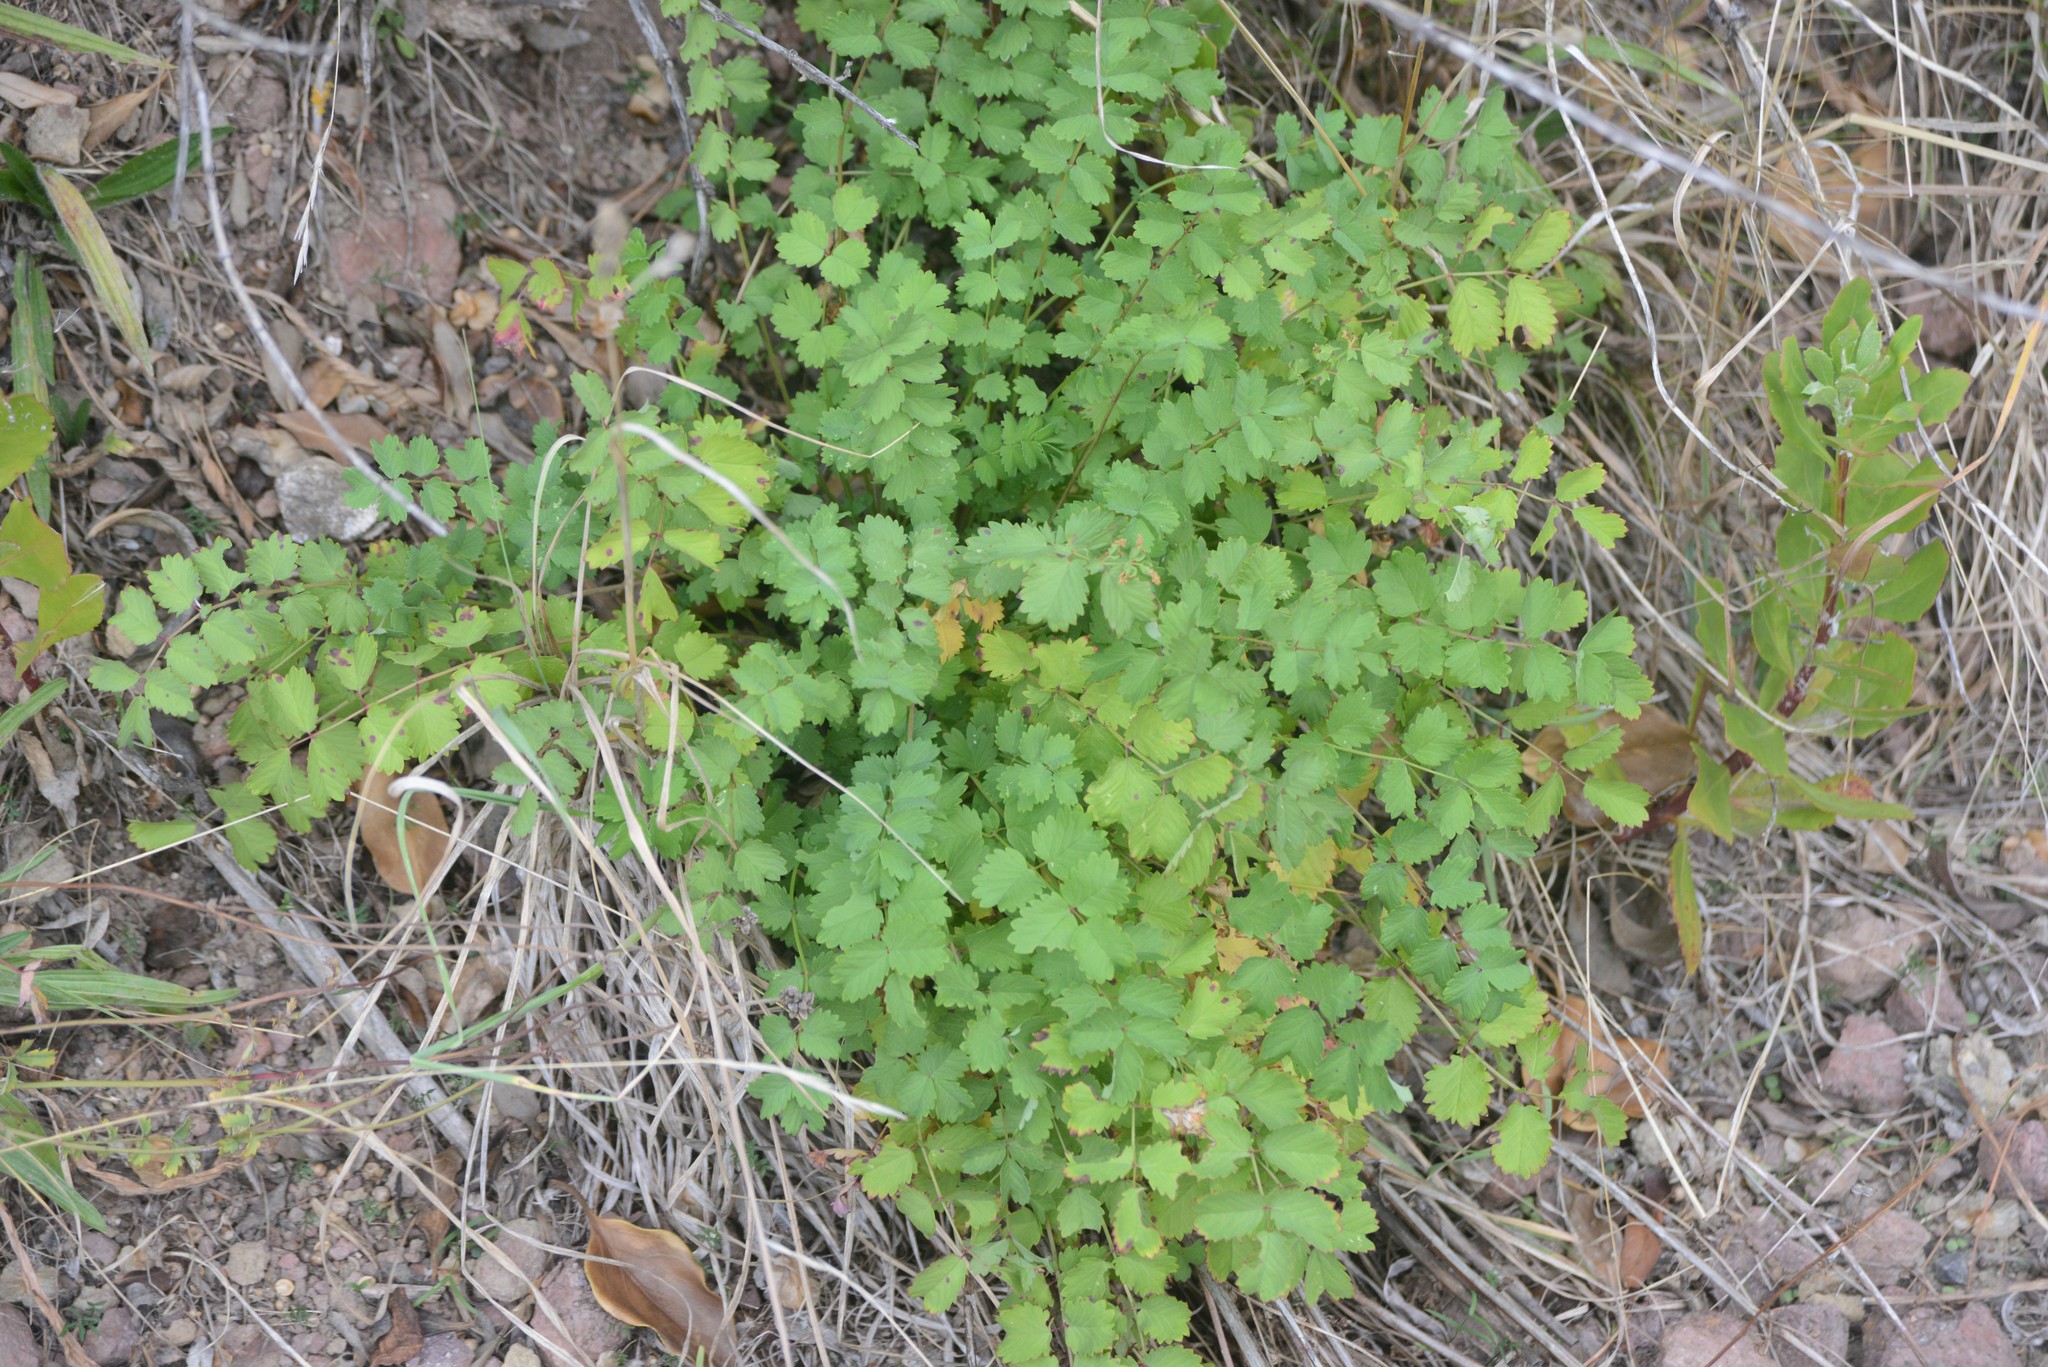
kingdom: Plantae
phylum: Tracheophyta
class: Magnoliopsida
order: Rosales
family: Rosaceae
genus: Poterium
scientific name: Poterium sanguisorba
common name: Salad burnet
